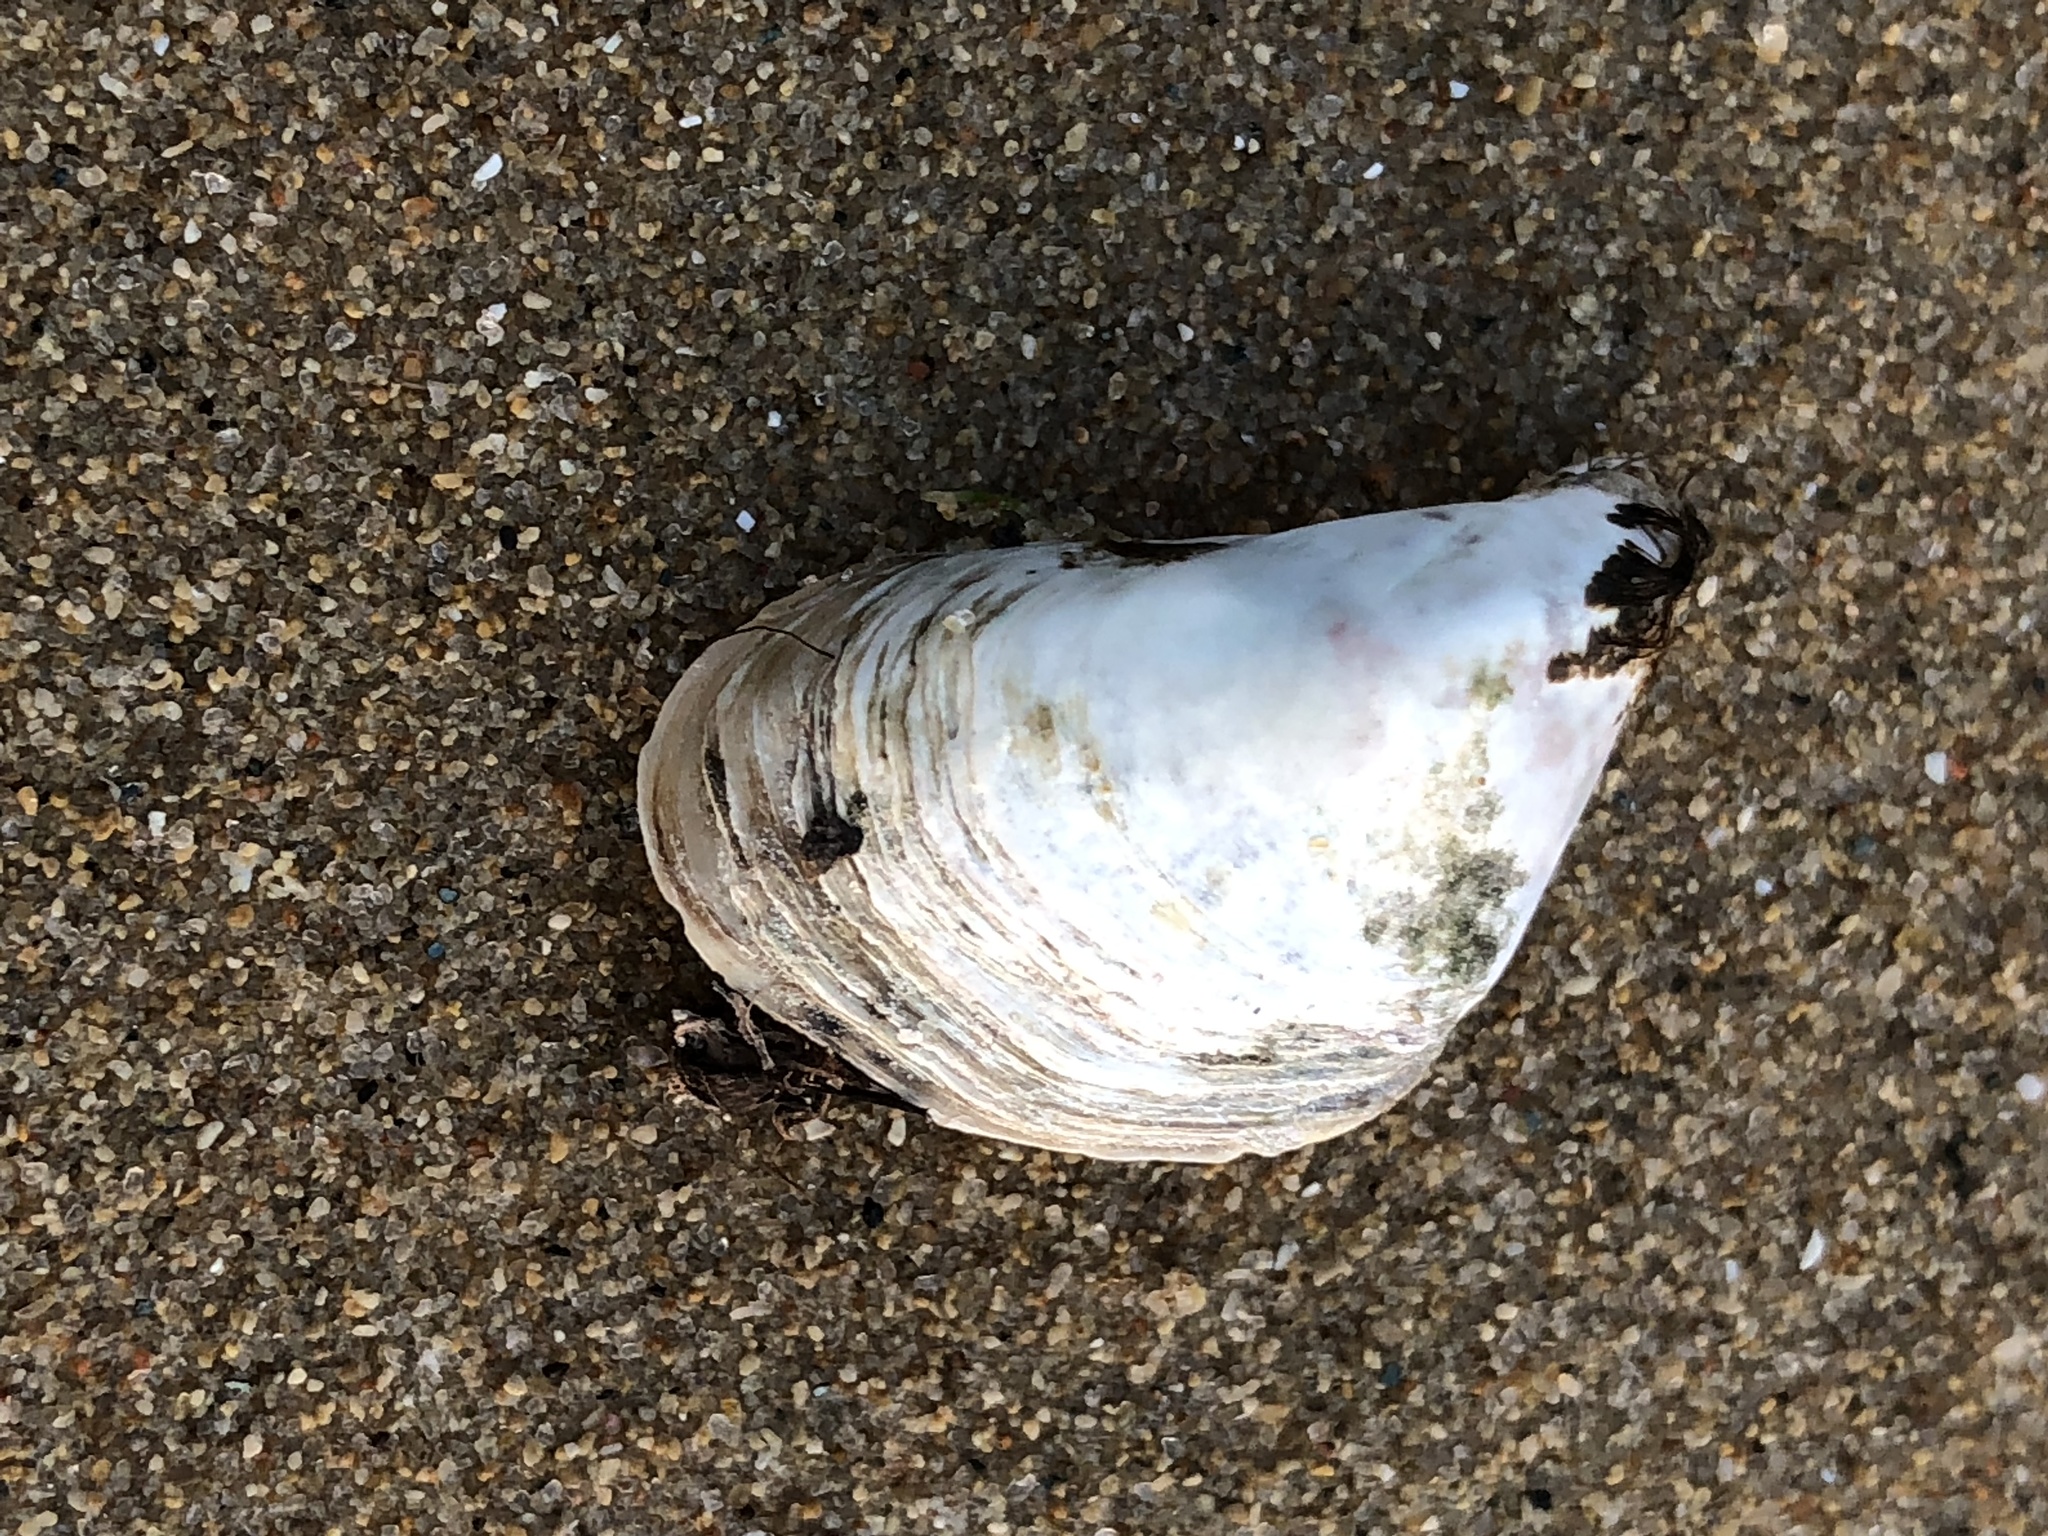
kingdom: Animalia
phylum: Mollusca
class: Bivalvia
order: Myida
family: Dreissenidae
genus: Dreissena
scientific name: Dreissena bugensis
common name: Quagga mussel
